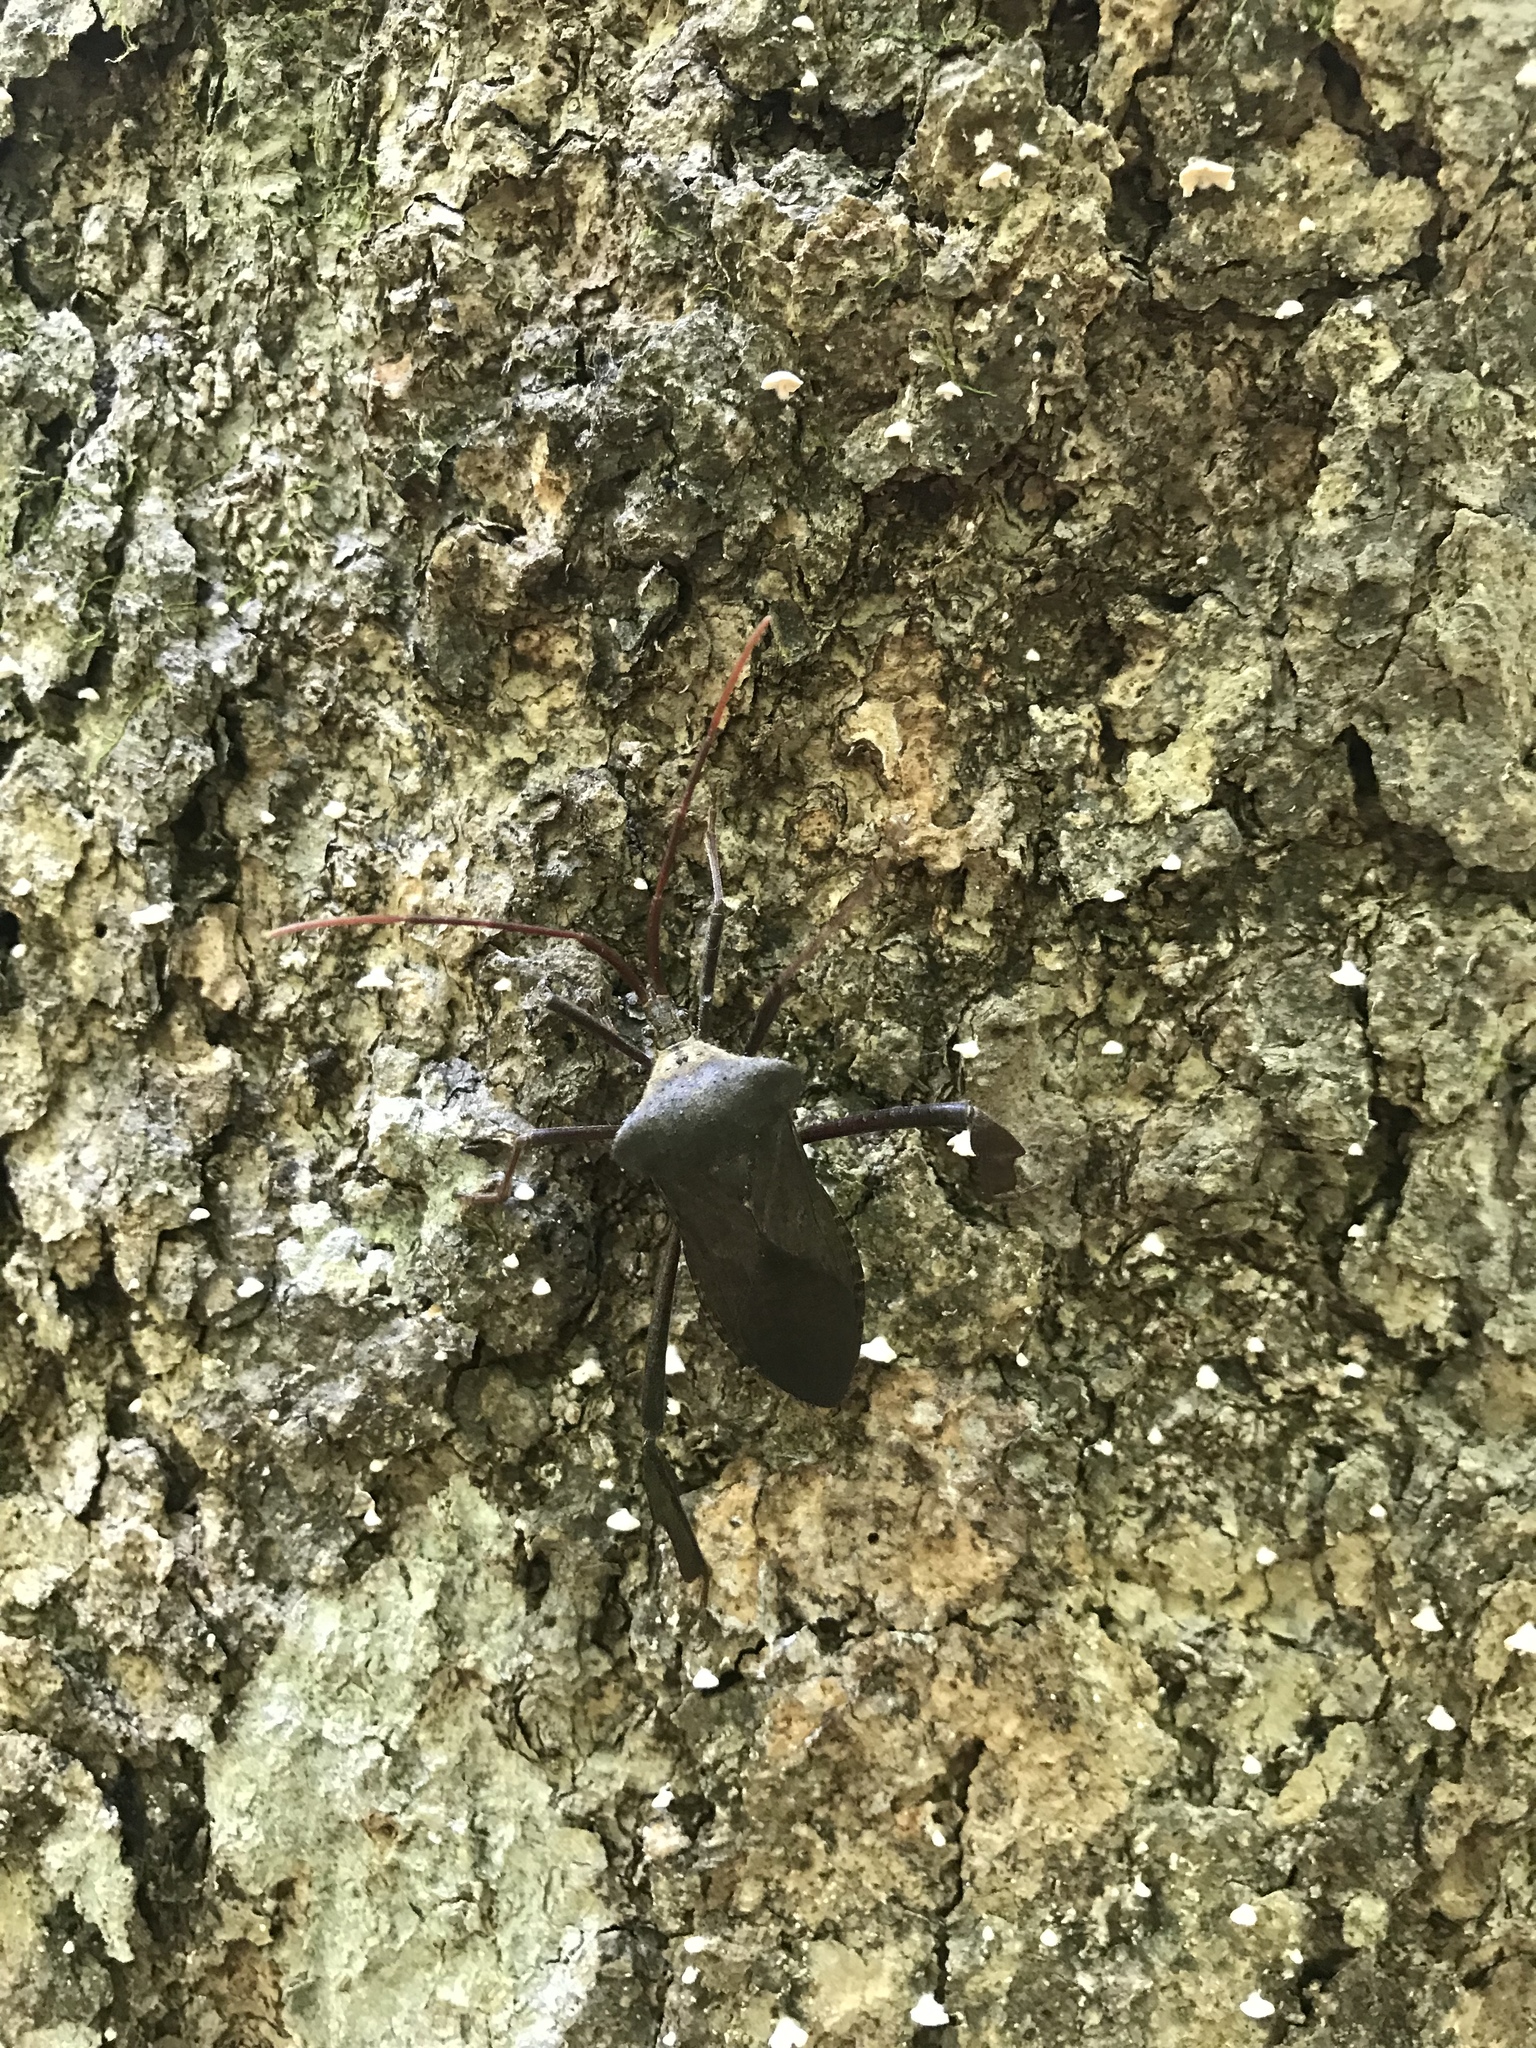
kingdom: Animalia
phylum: Arthropoda
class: Insecta
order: Hemiptera
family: Coreidae
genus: Acanthocephala
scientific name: Acanthocephala declivis
